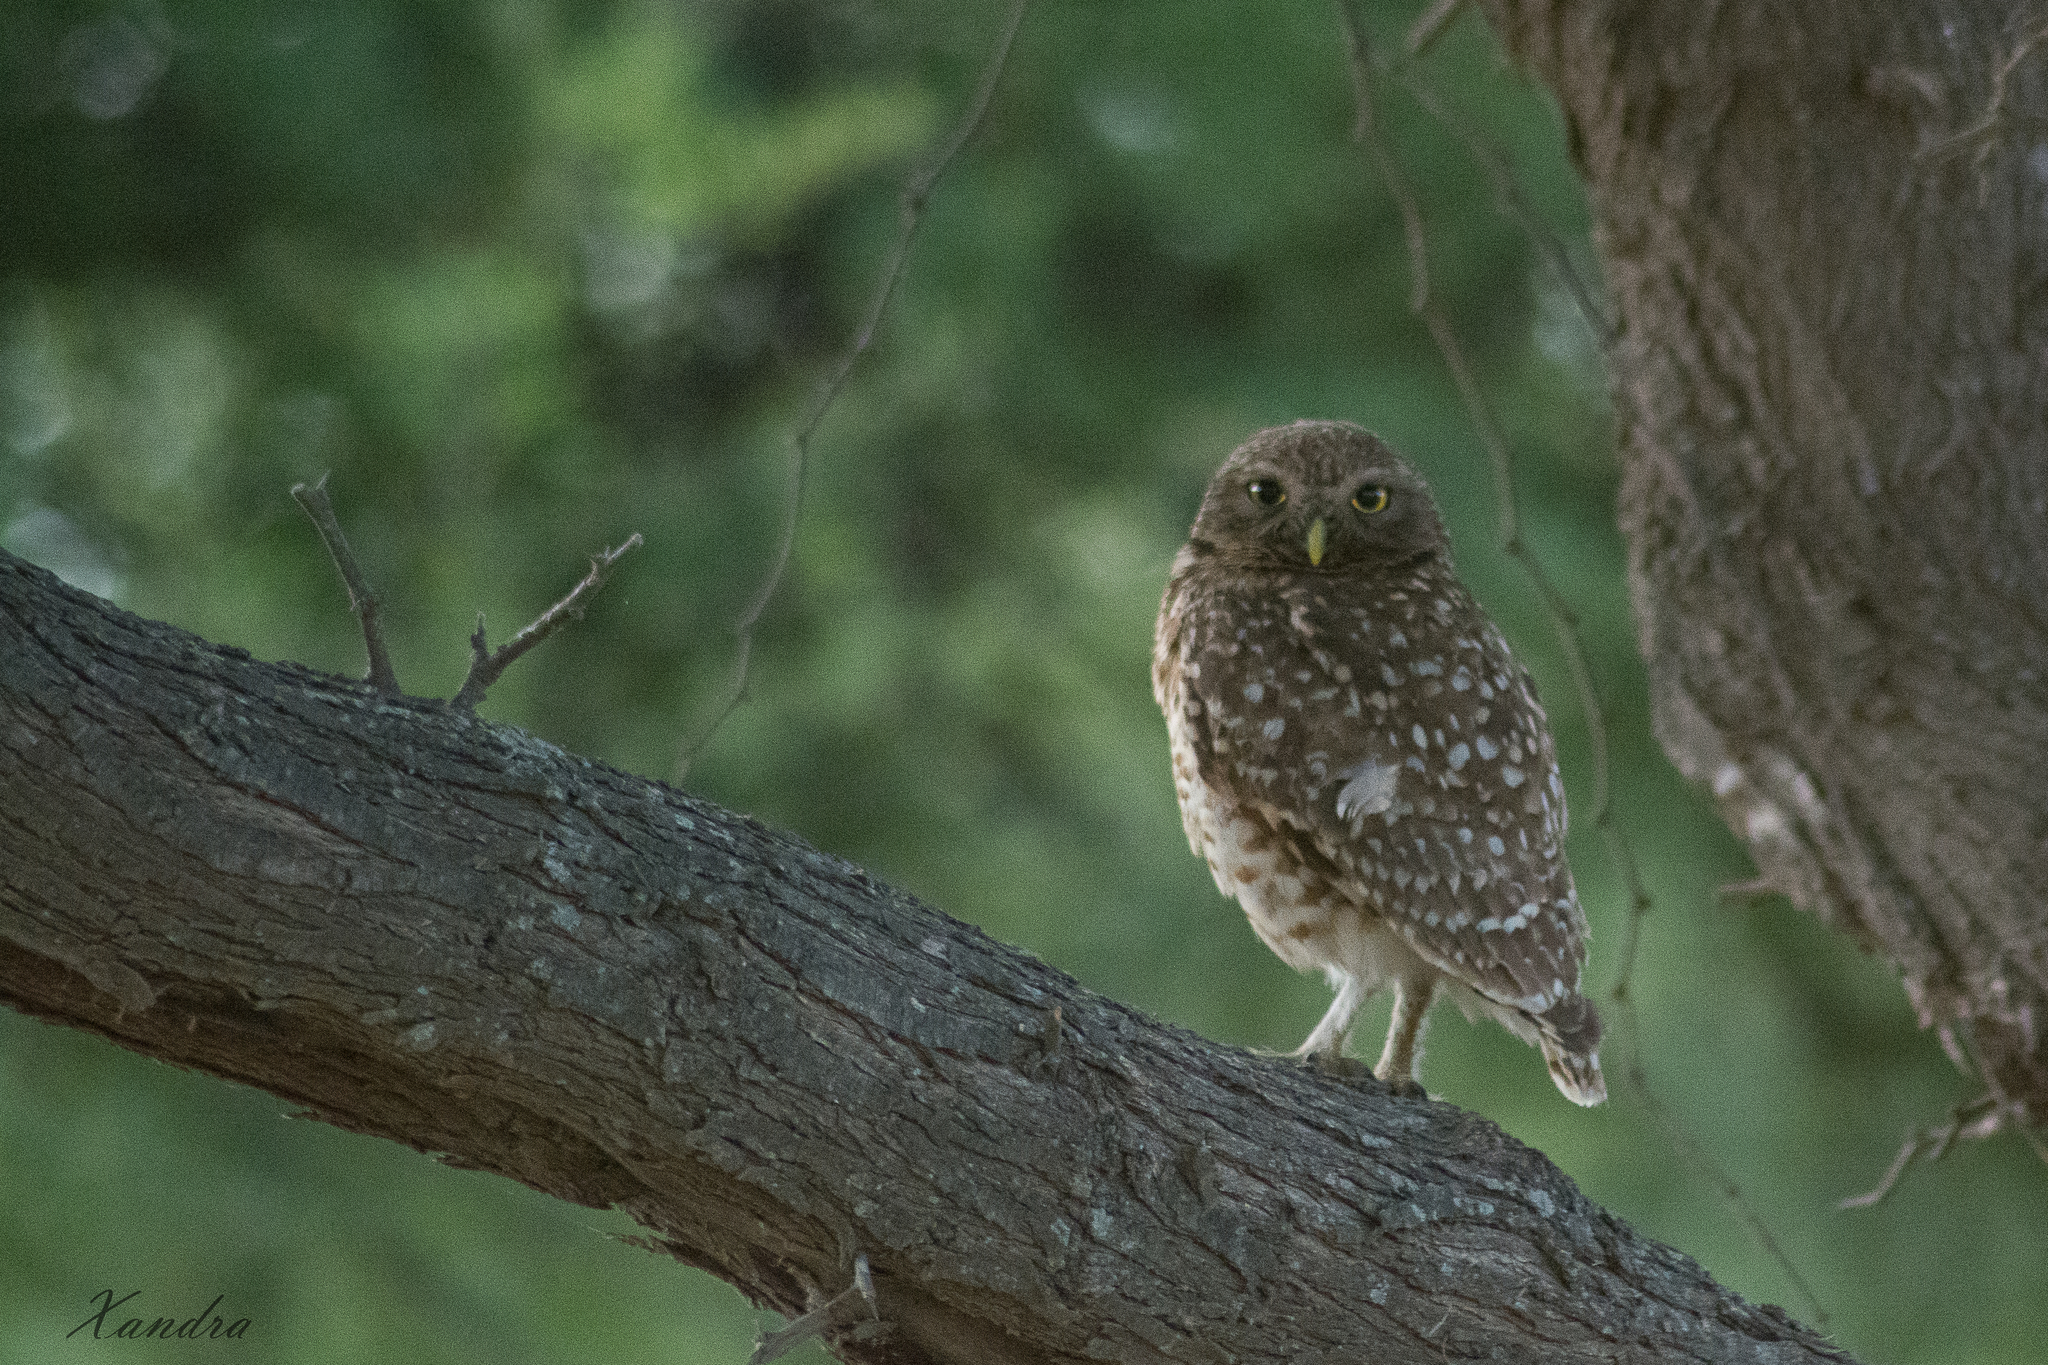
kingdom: Animalia
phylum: Chordata
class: Aves
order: Strigiformes
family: Strigidae
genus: Athene
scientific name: Athene cunicularia
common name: Burrowing owl
